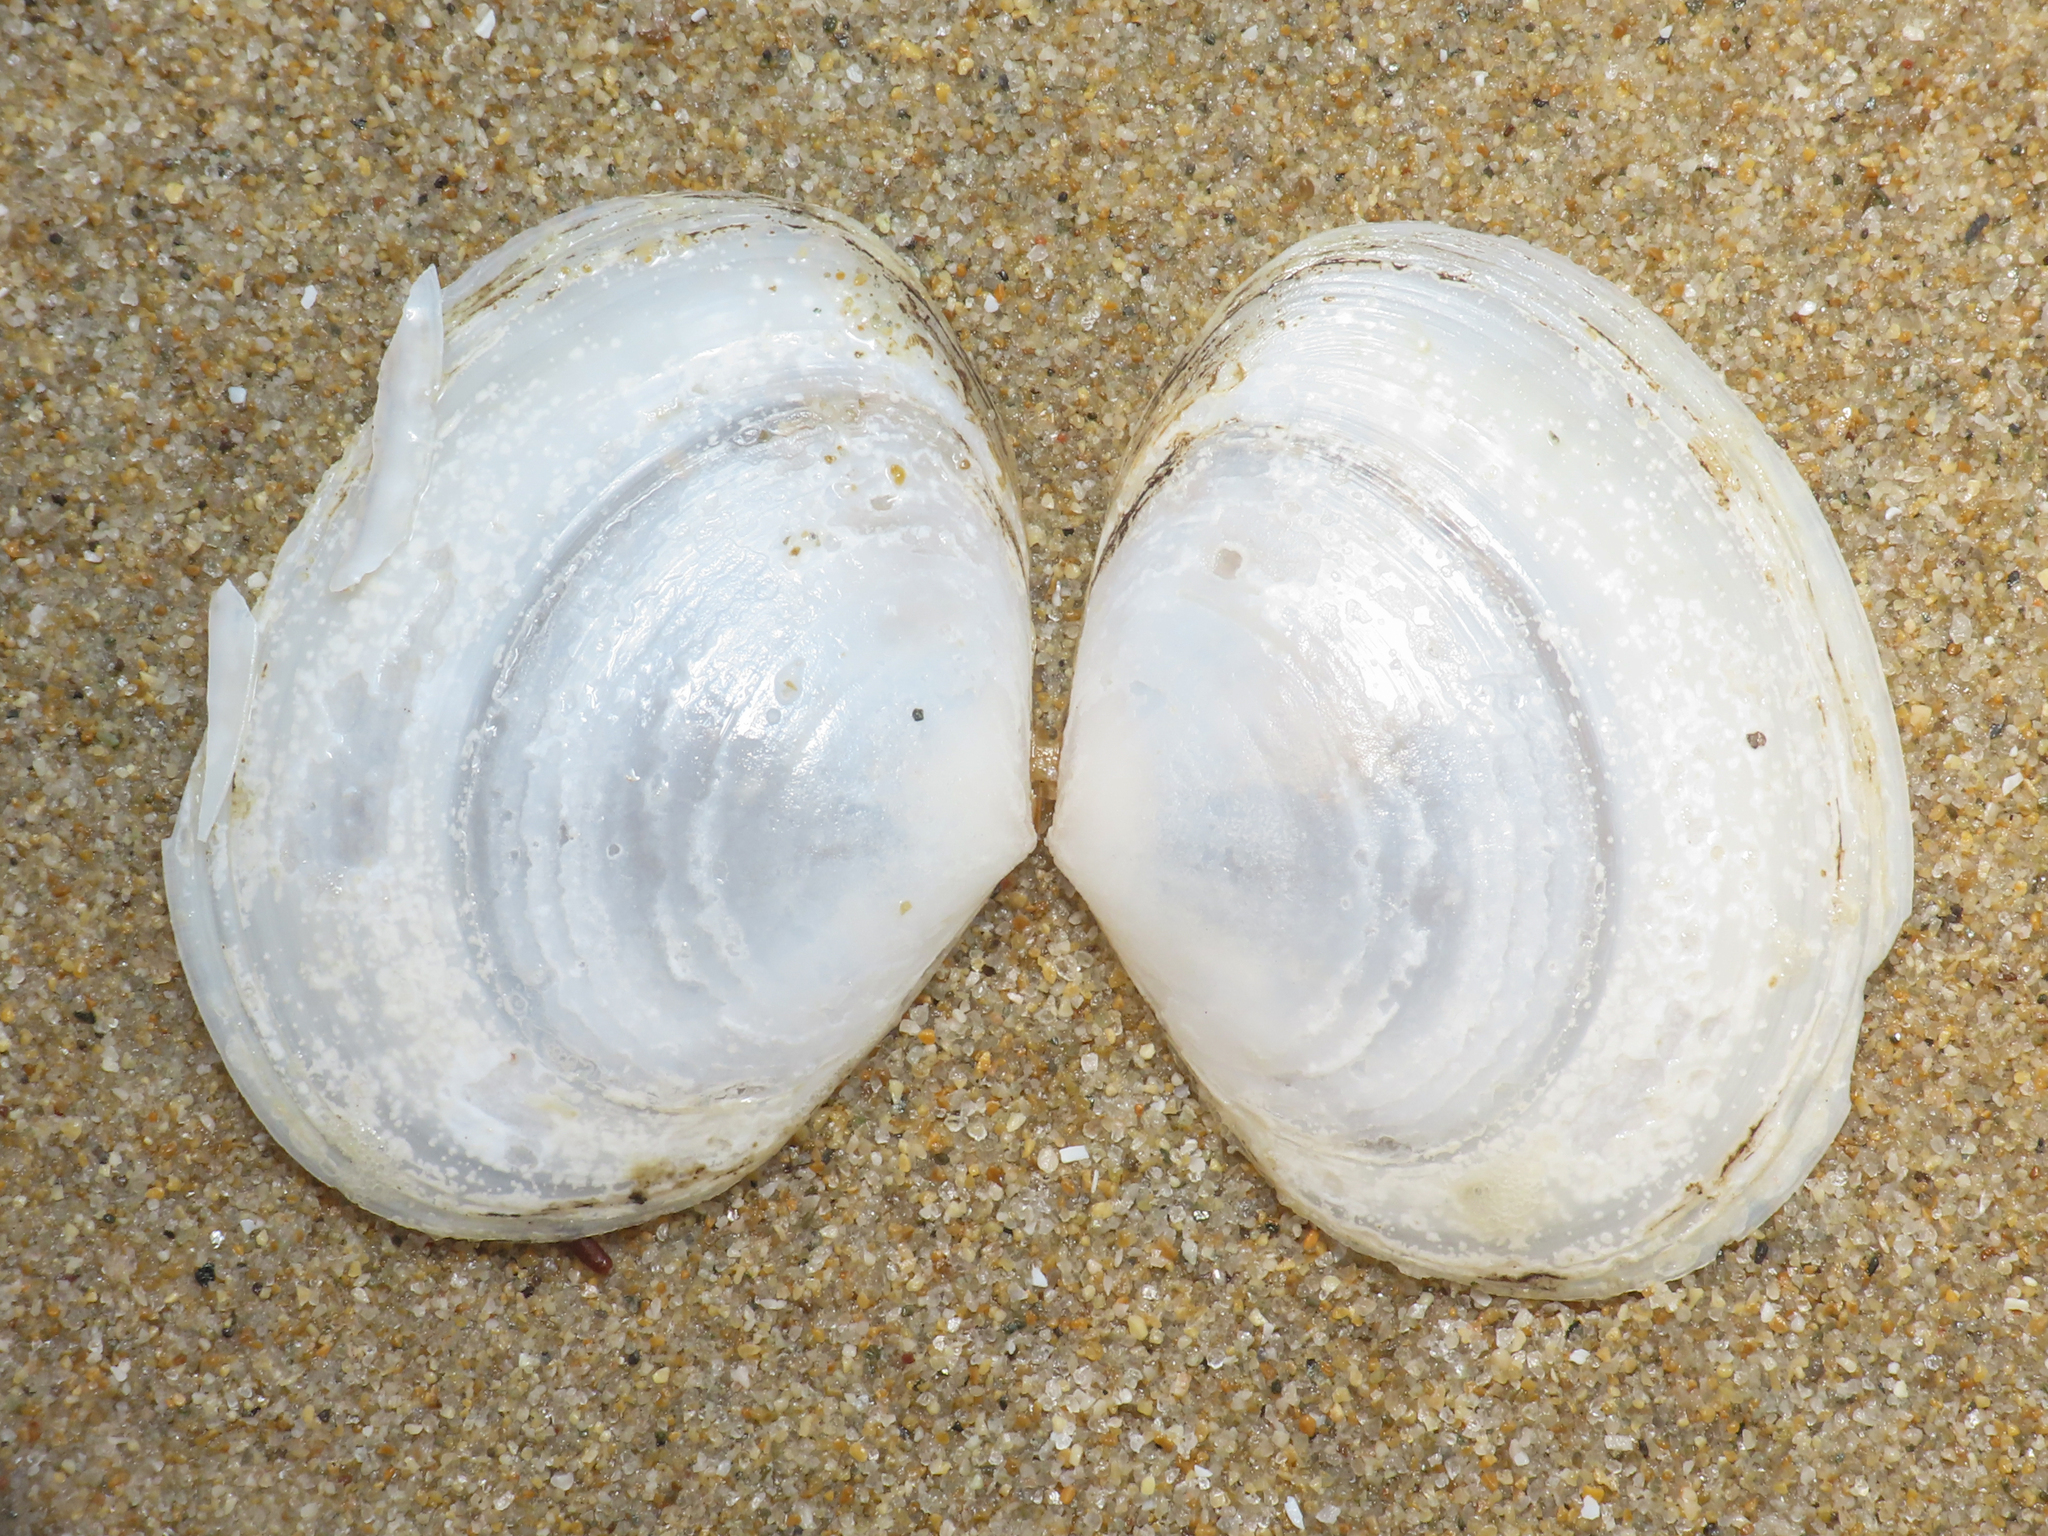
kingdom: Animalia
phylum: Mollusca
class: Bivalvia
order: Cardiida
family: Semelidae
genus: Scrobicularia
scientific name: Scrobicularia plana
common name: Peppery furrow shell
